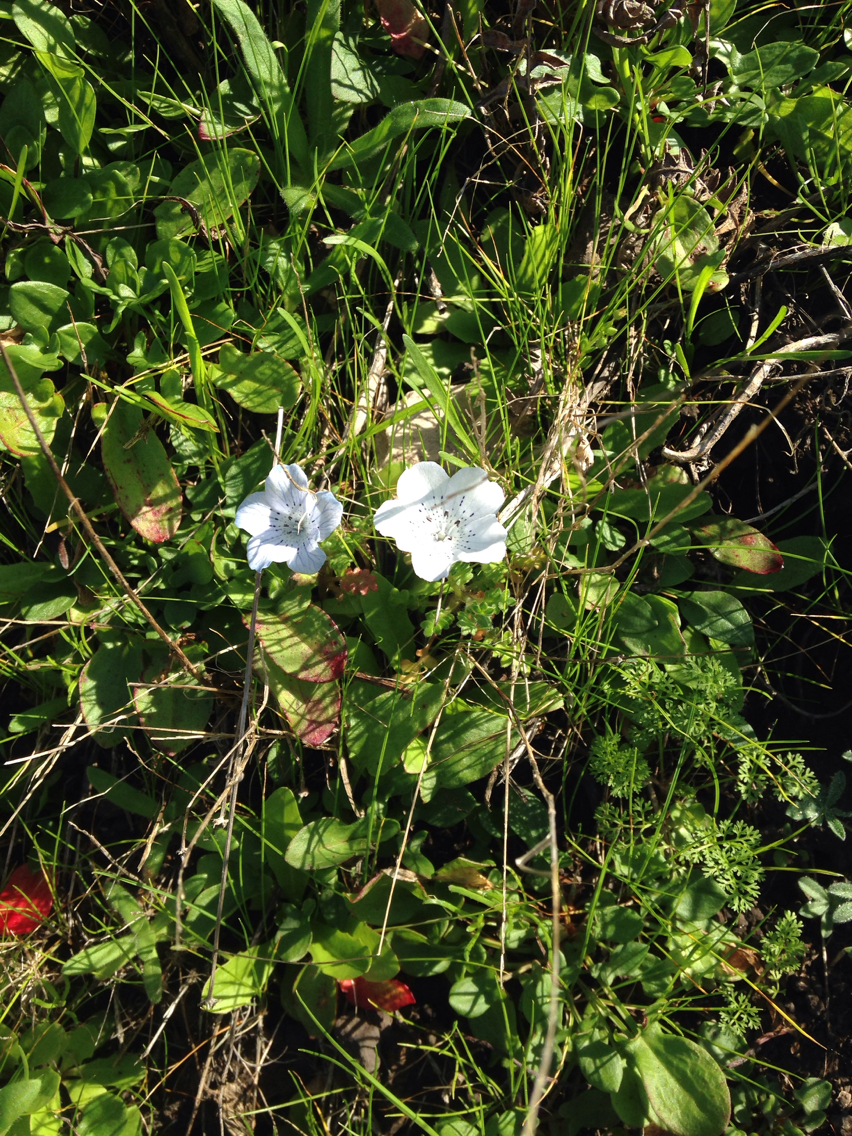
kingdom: Plantae
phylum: Tracheophyta
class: Magnoliopsida
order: Boraginales
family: Hydrophyllaceae
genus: Nemophila
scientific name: Nemophila menziesii
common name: Baby's-blue-eyes
